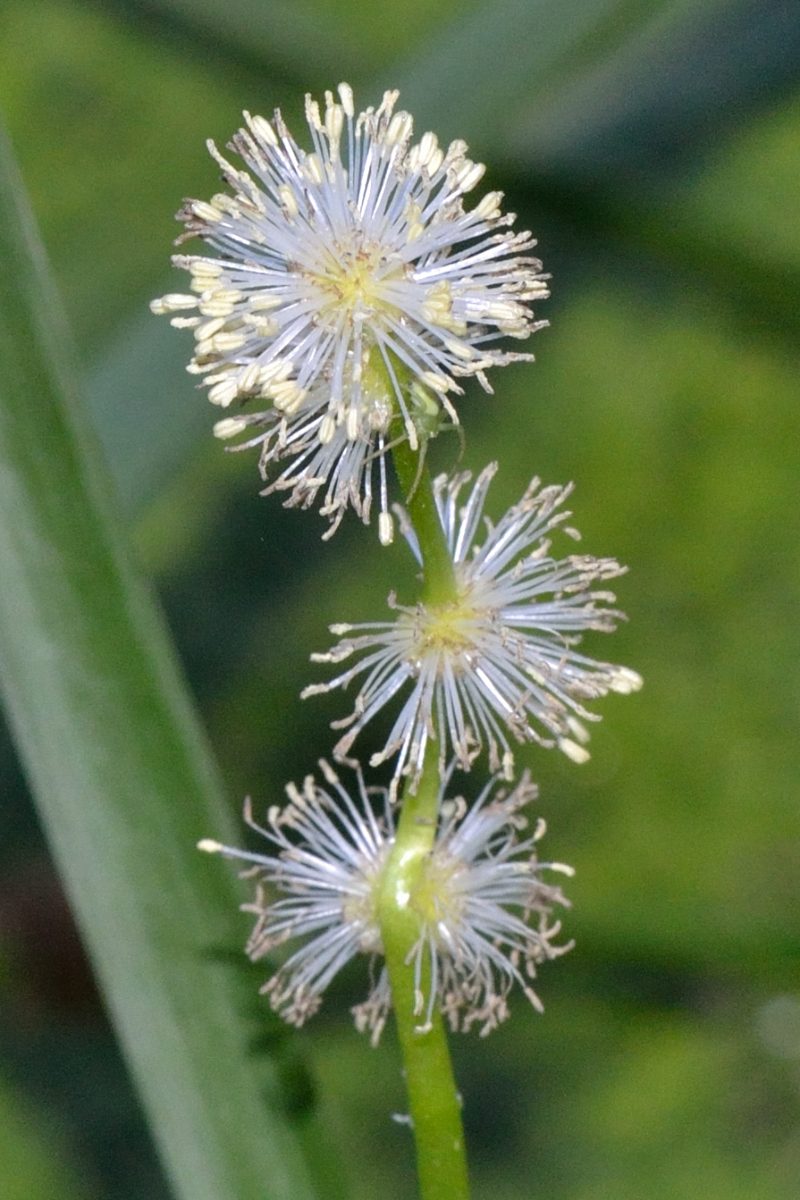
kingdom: Plantae
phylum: Tracheophyta
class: Liliopsida
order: Poales
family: Typhaceae
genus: Sparganium
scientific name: Sparganium emersum
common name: Unbranched bur-reed
